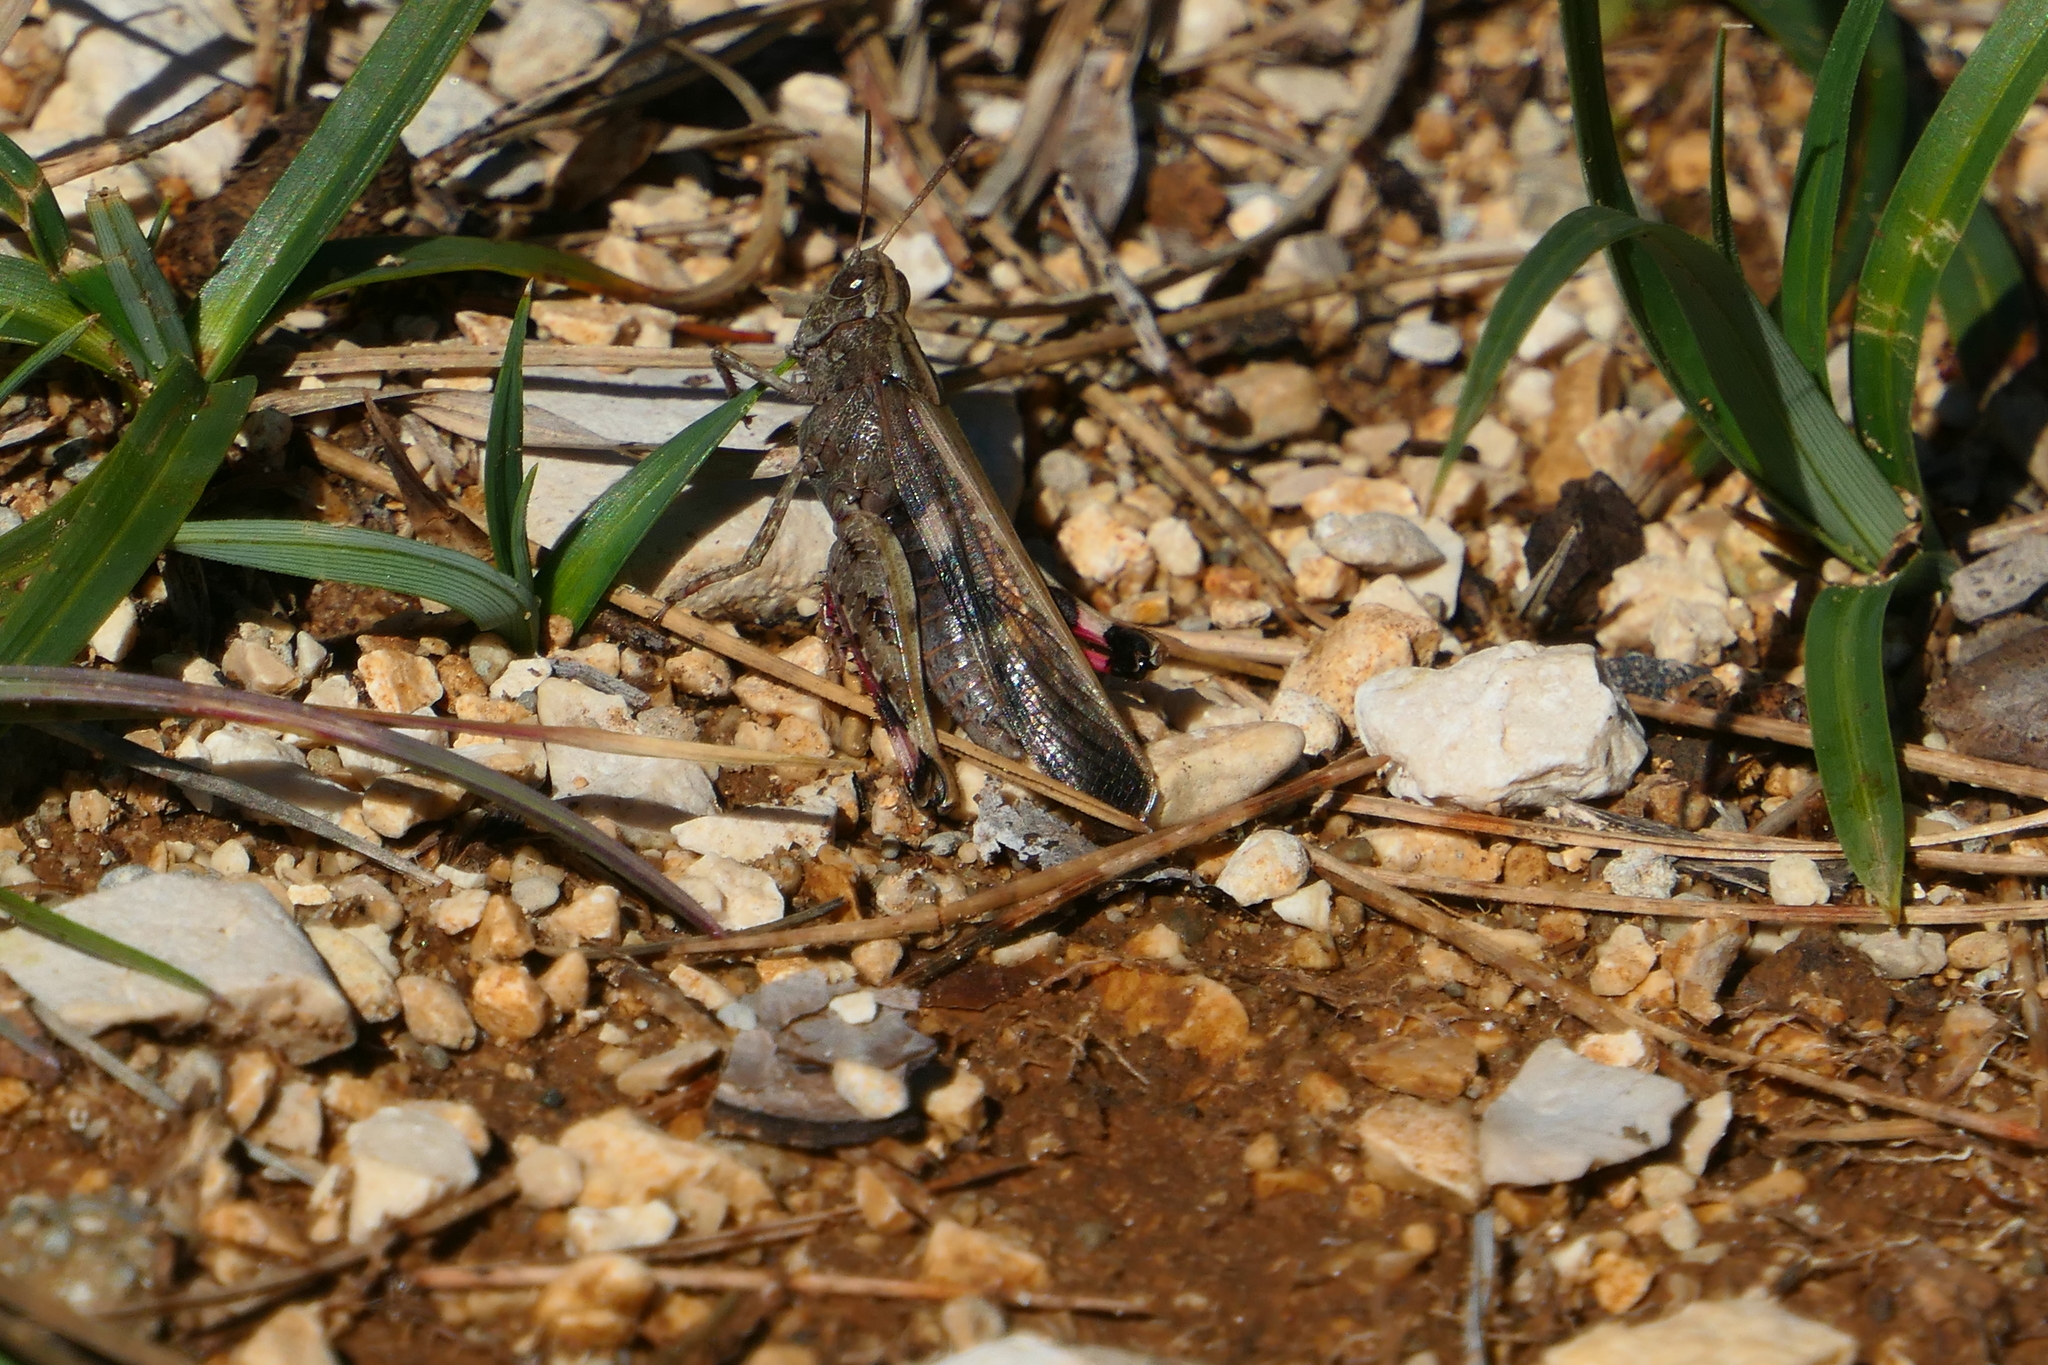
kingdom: Animalia
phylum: Arthropoda
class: Insecta
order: Orthoptera
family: Acrididae
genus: Aiolopus
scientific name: Aiolopus strepens
